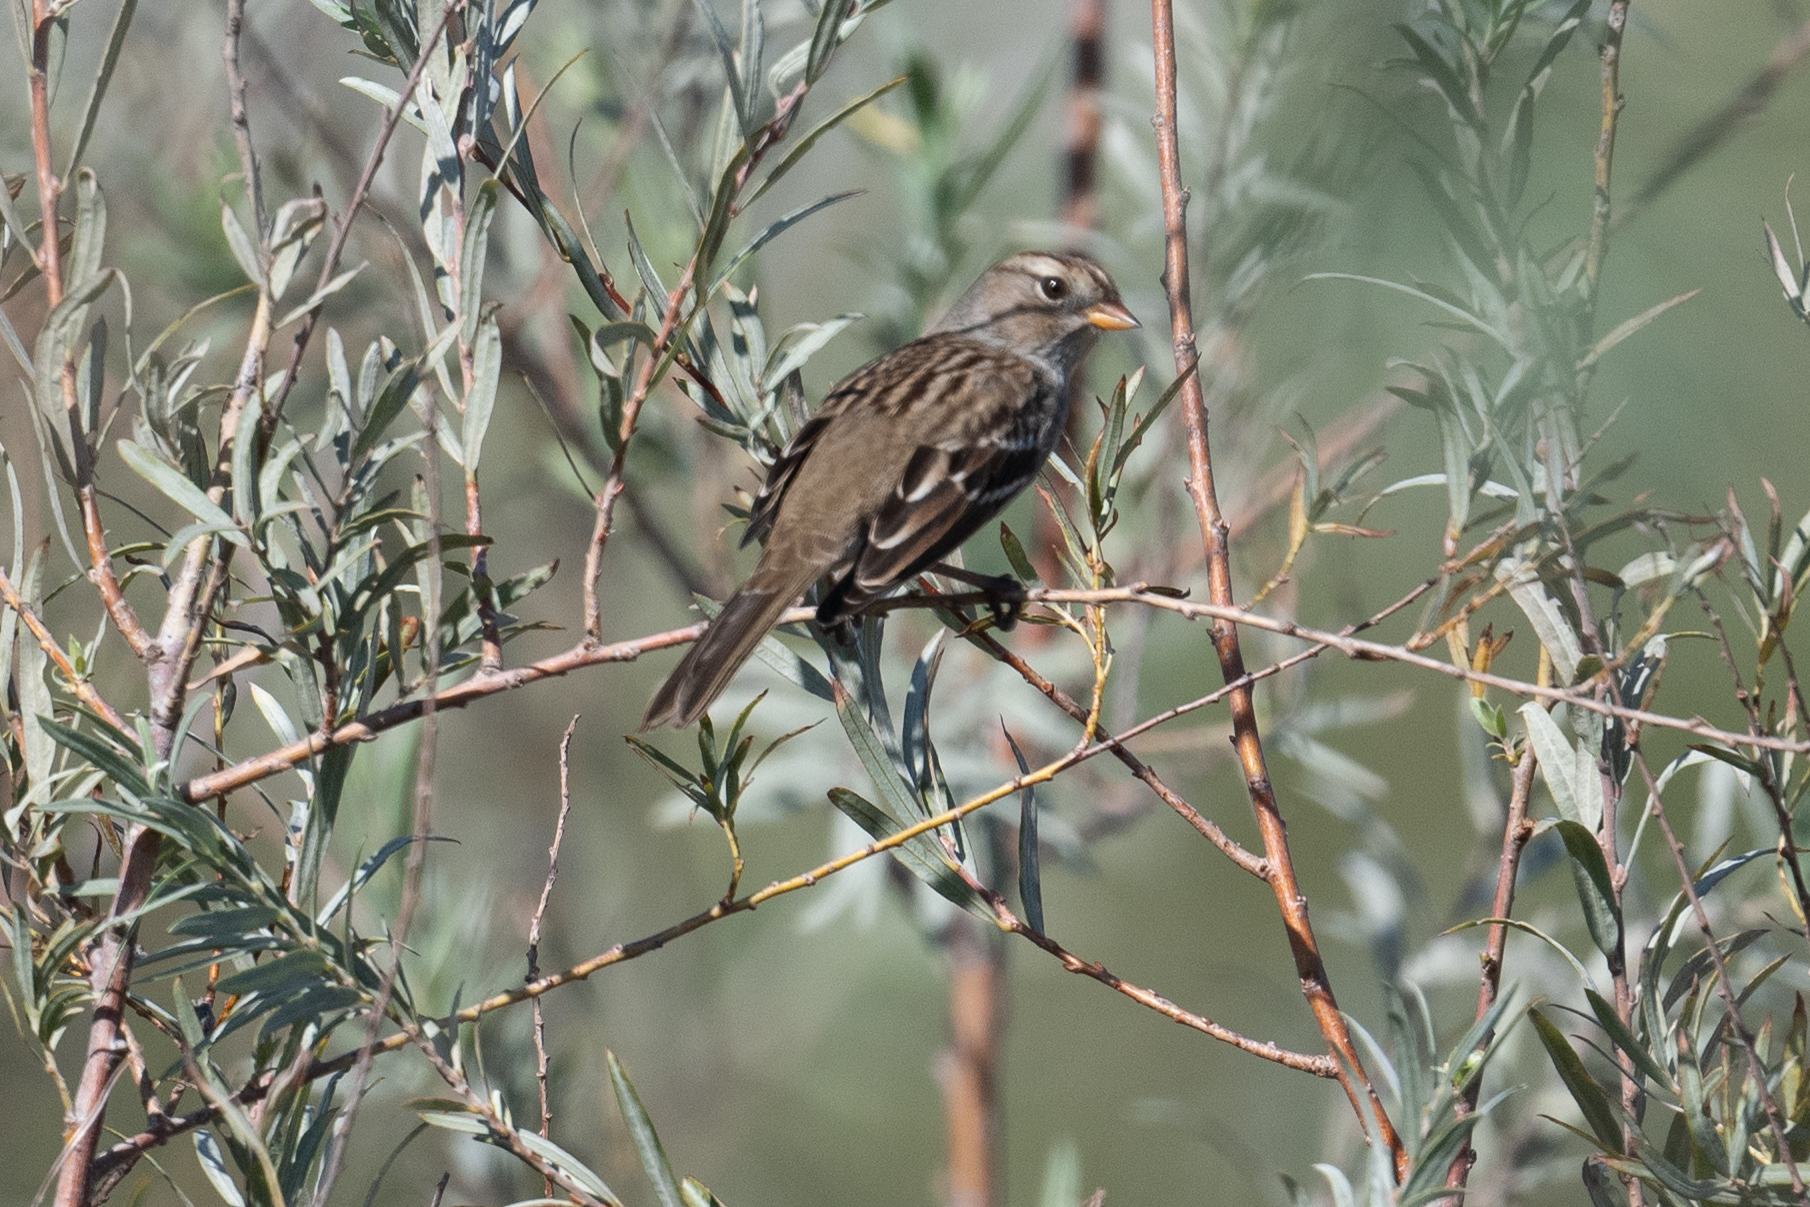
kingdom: Animalia
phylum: Chordata
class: Aves
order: Passeriformes
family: Passerellidae
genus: Zonotrichia
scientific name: Zonotrichia leucophrys
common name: White-crowned sparrow
